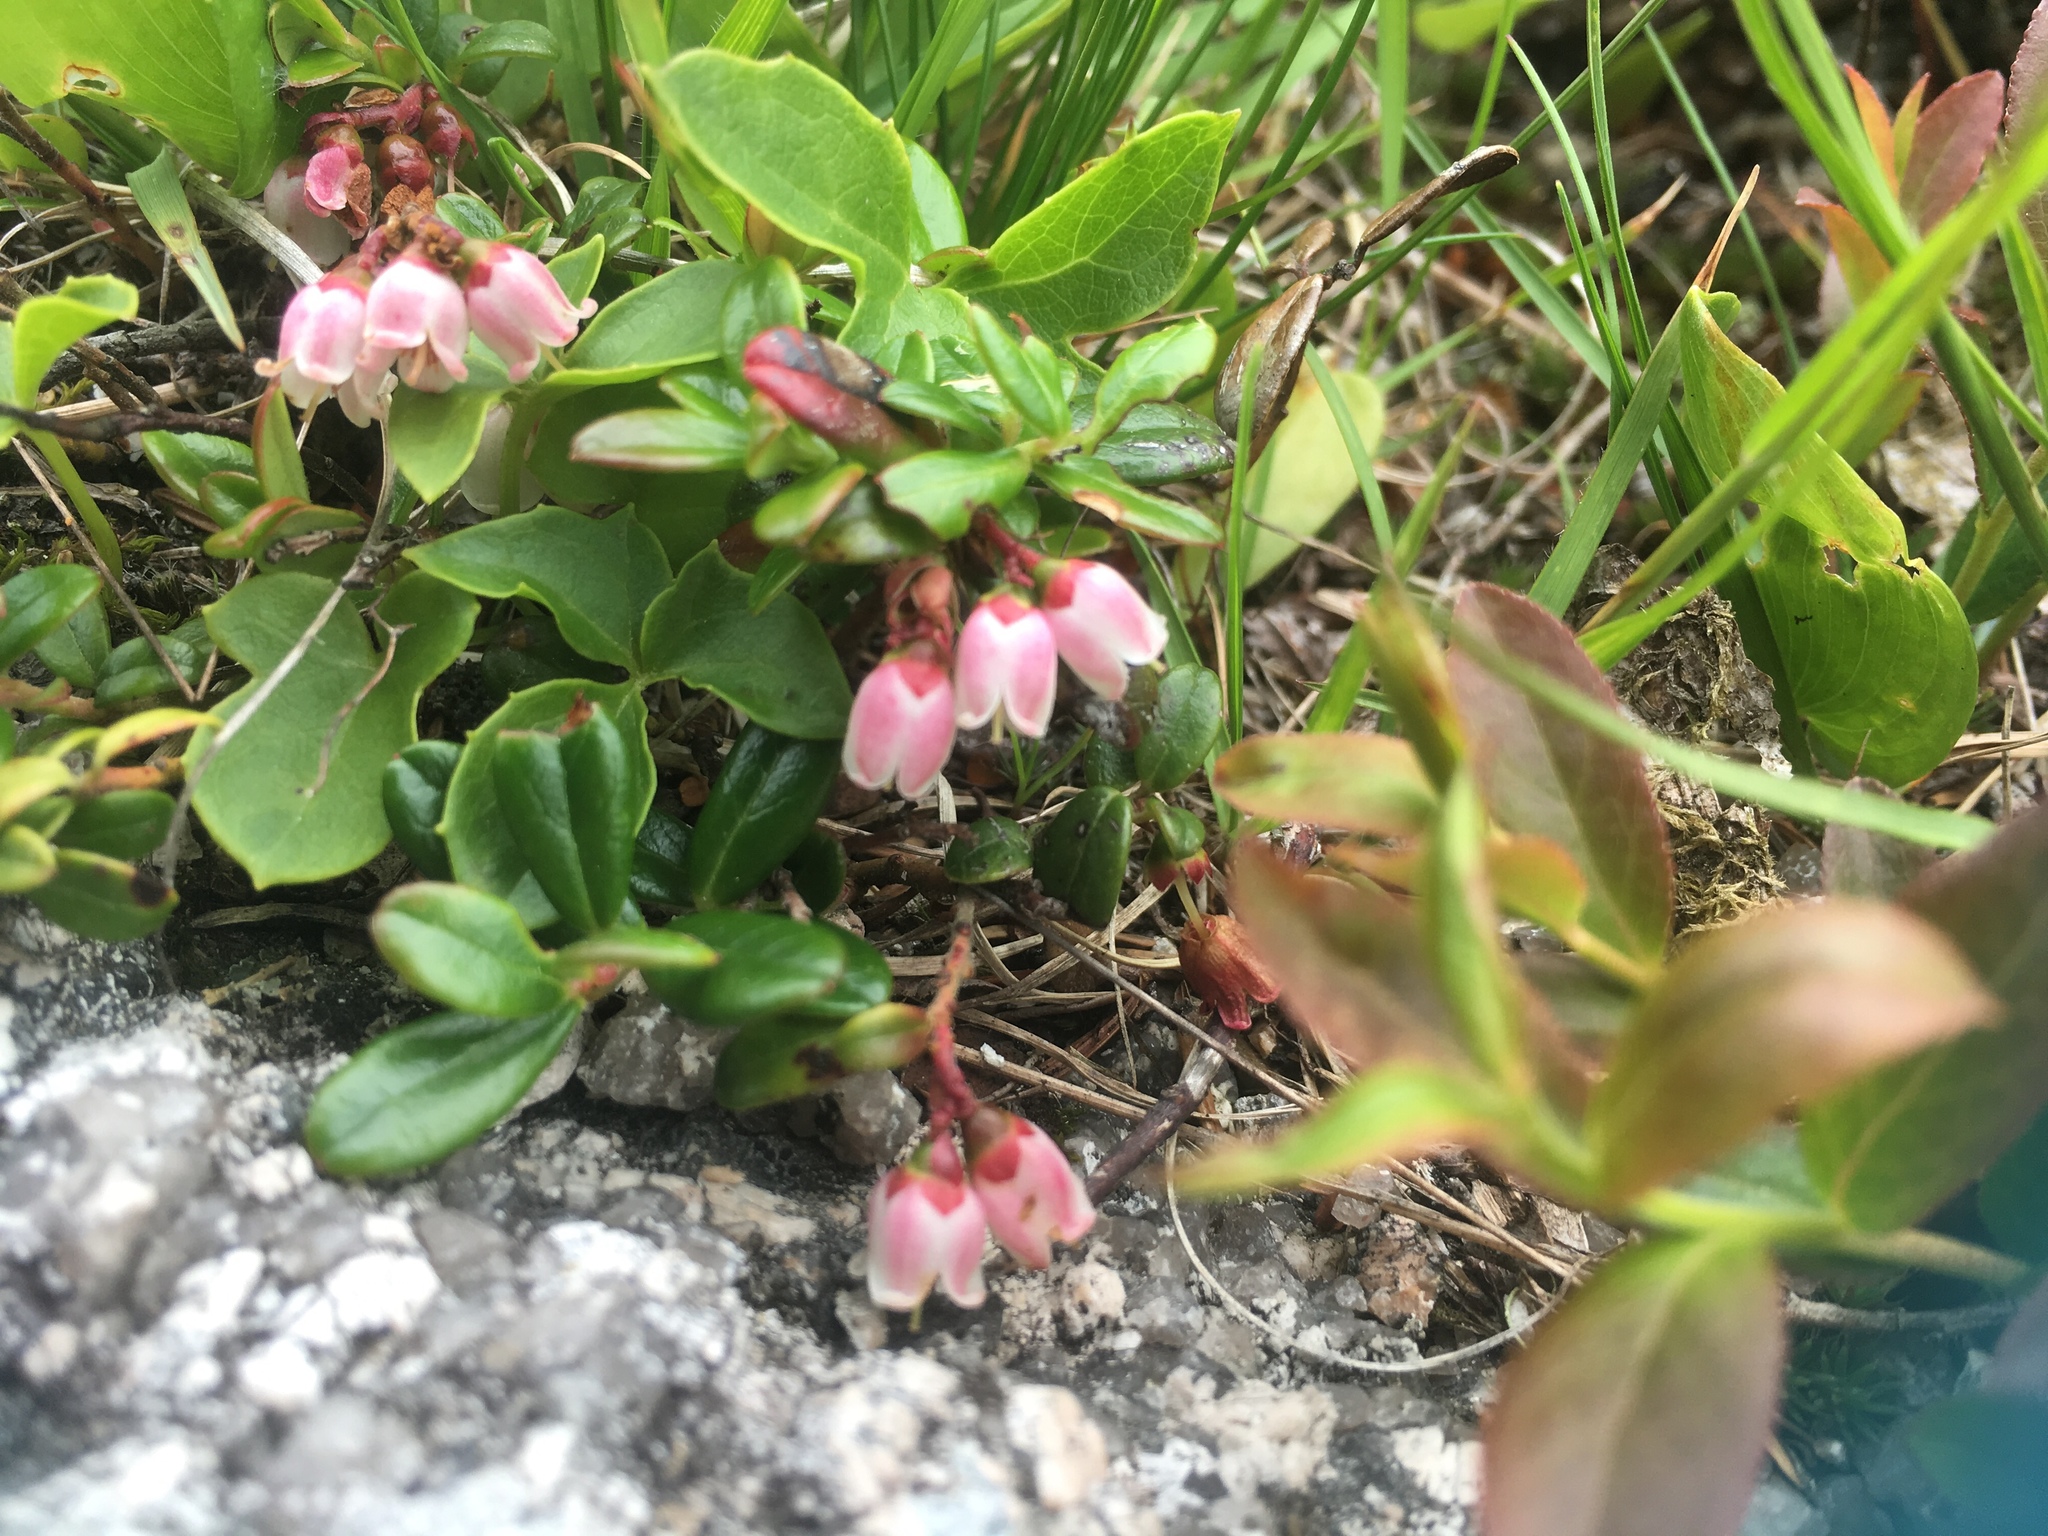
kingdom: Plantae
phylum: Tracheophyta
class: Magnoliopsida
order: Ericales
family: Ericaceae
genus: Vaccinium
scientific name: Vaccinium vitis-idaea
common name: Cowberry
